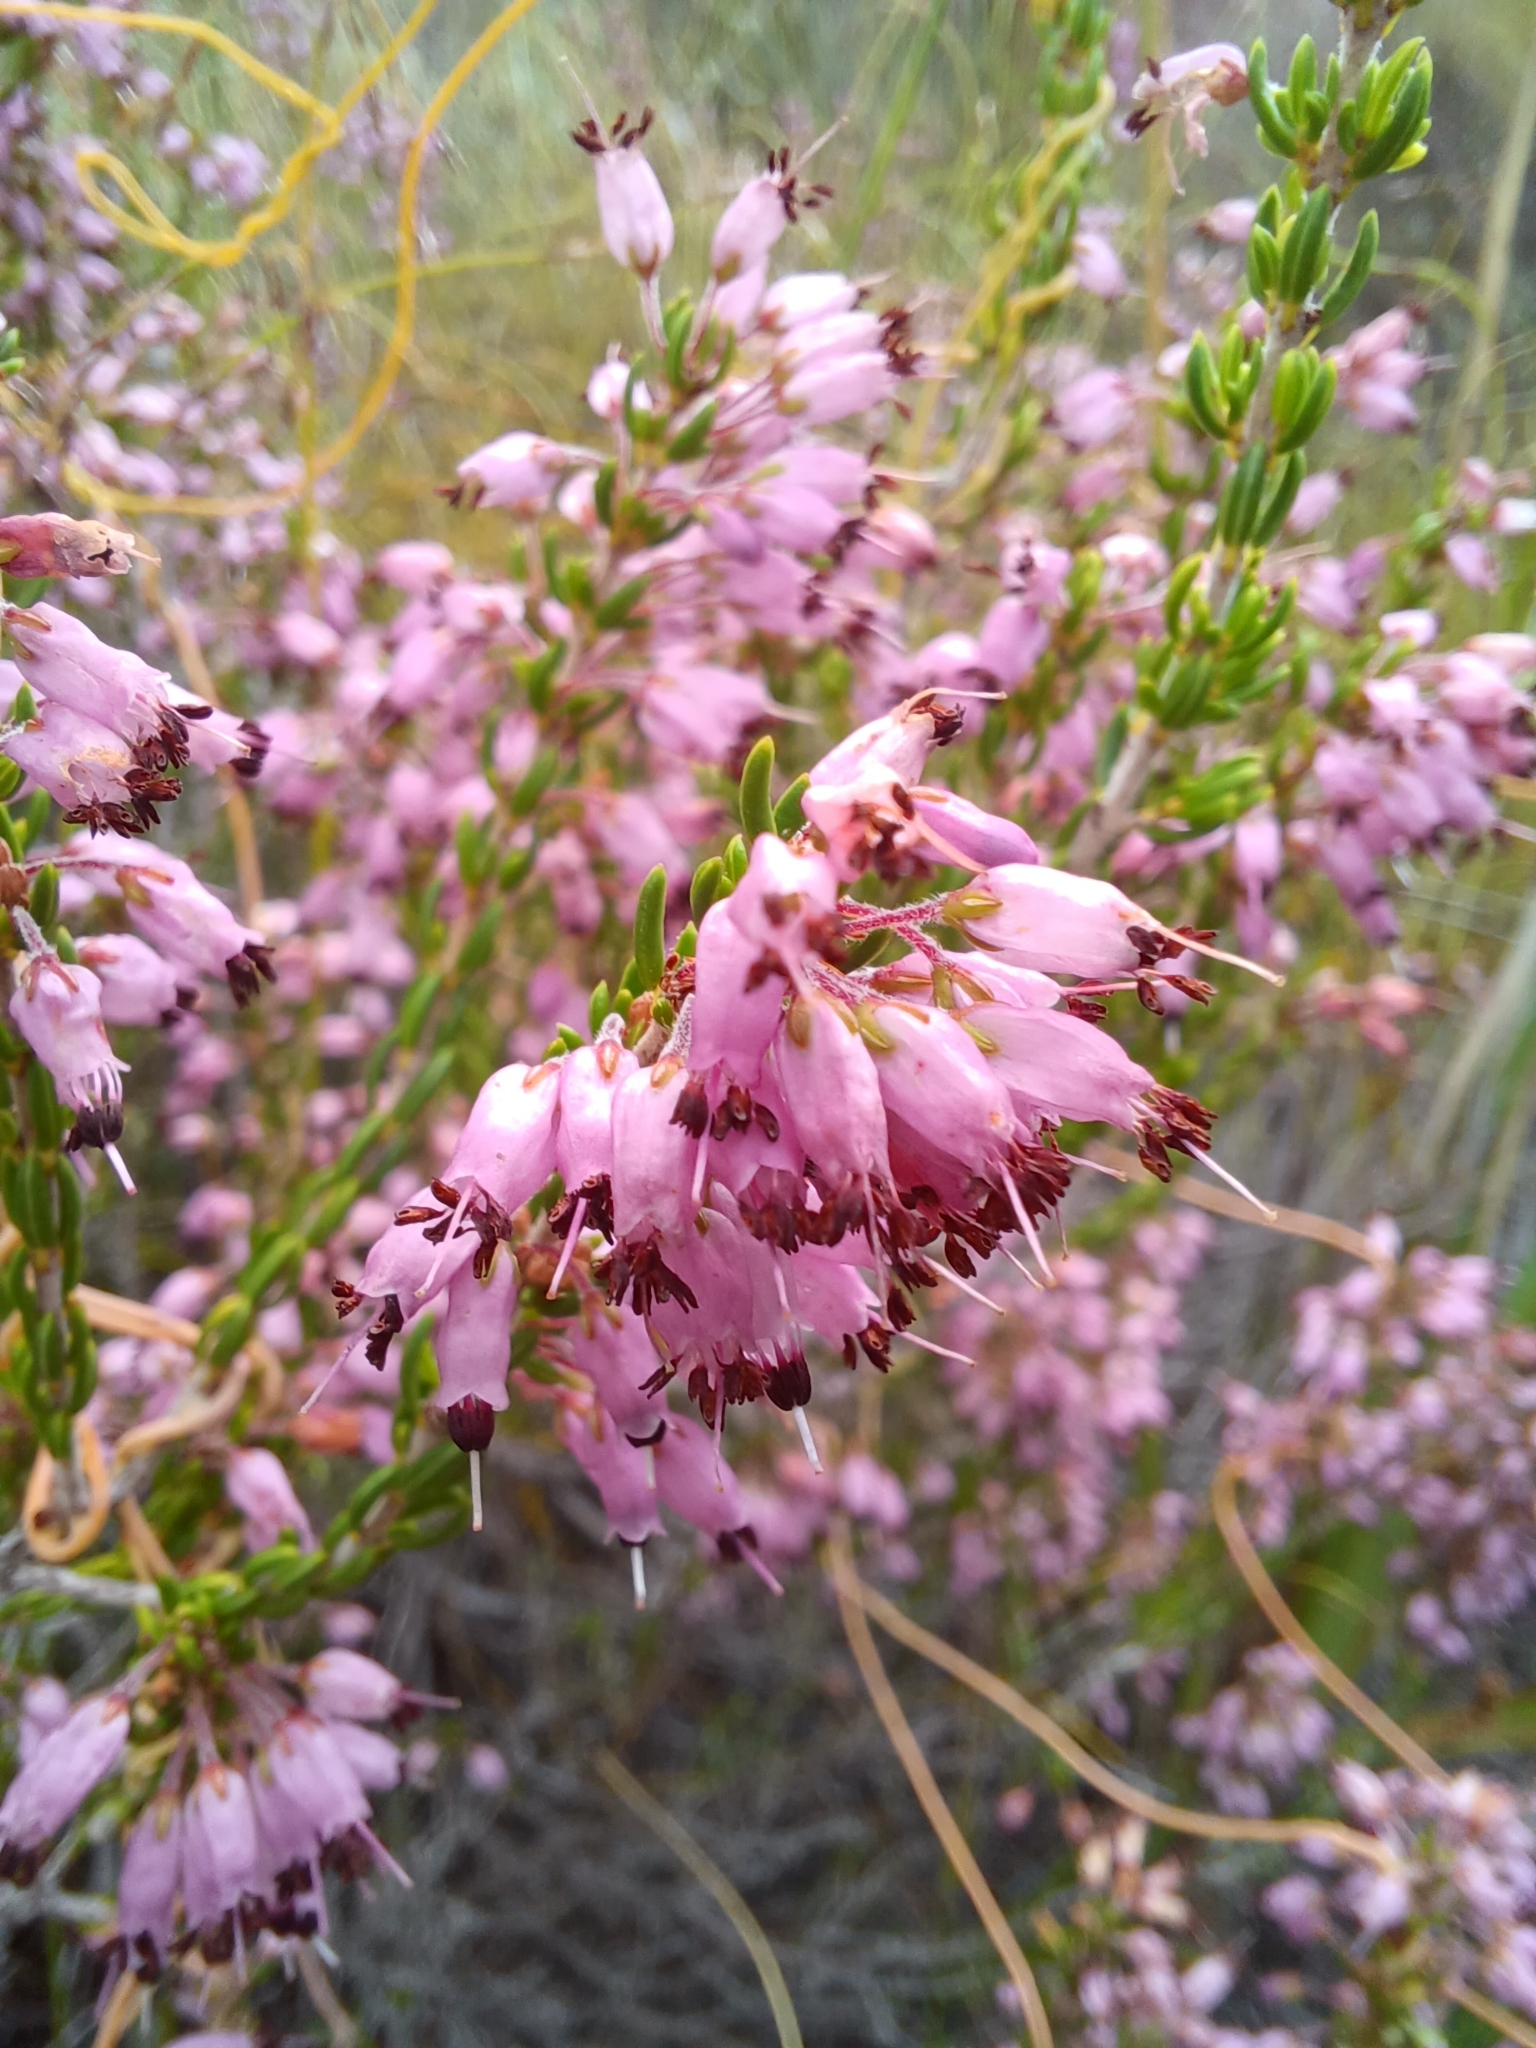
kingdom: Plantae
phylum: Tracheophyta
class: Magnoliopsida
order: Ericales
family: Ericaceae
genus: Erica
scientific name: Erica nudiflora
